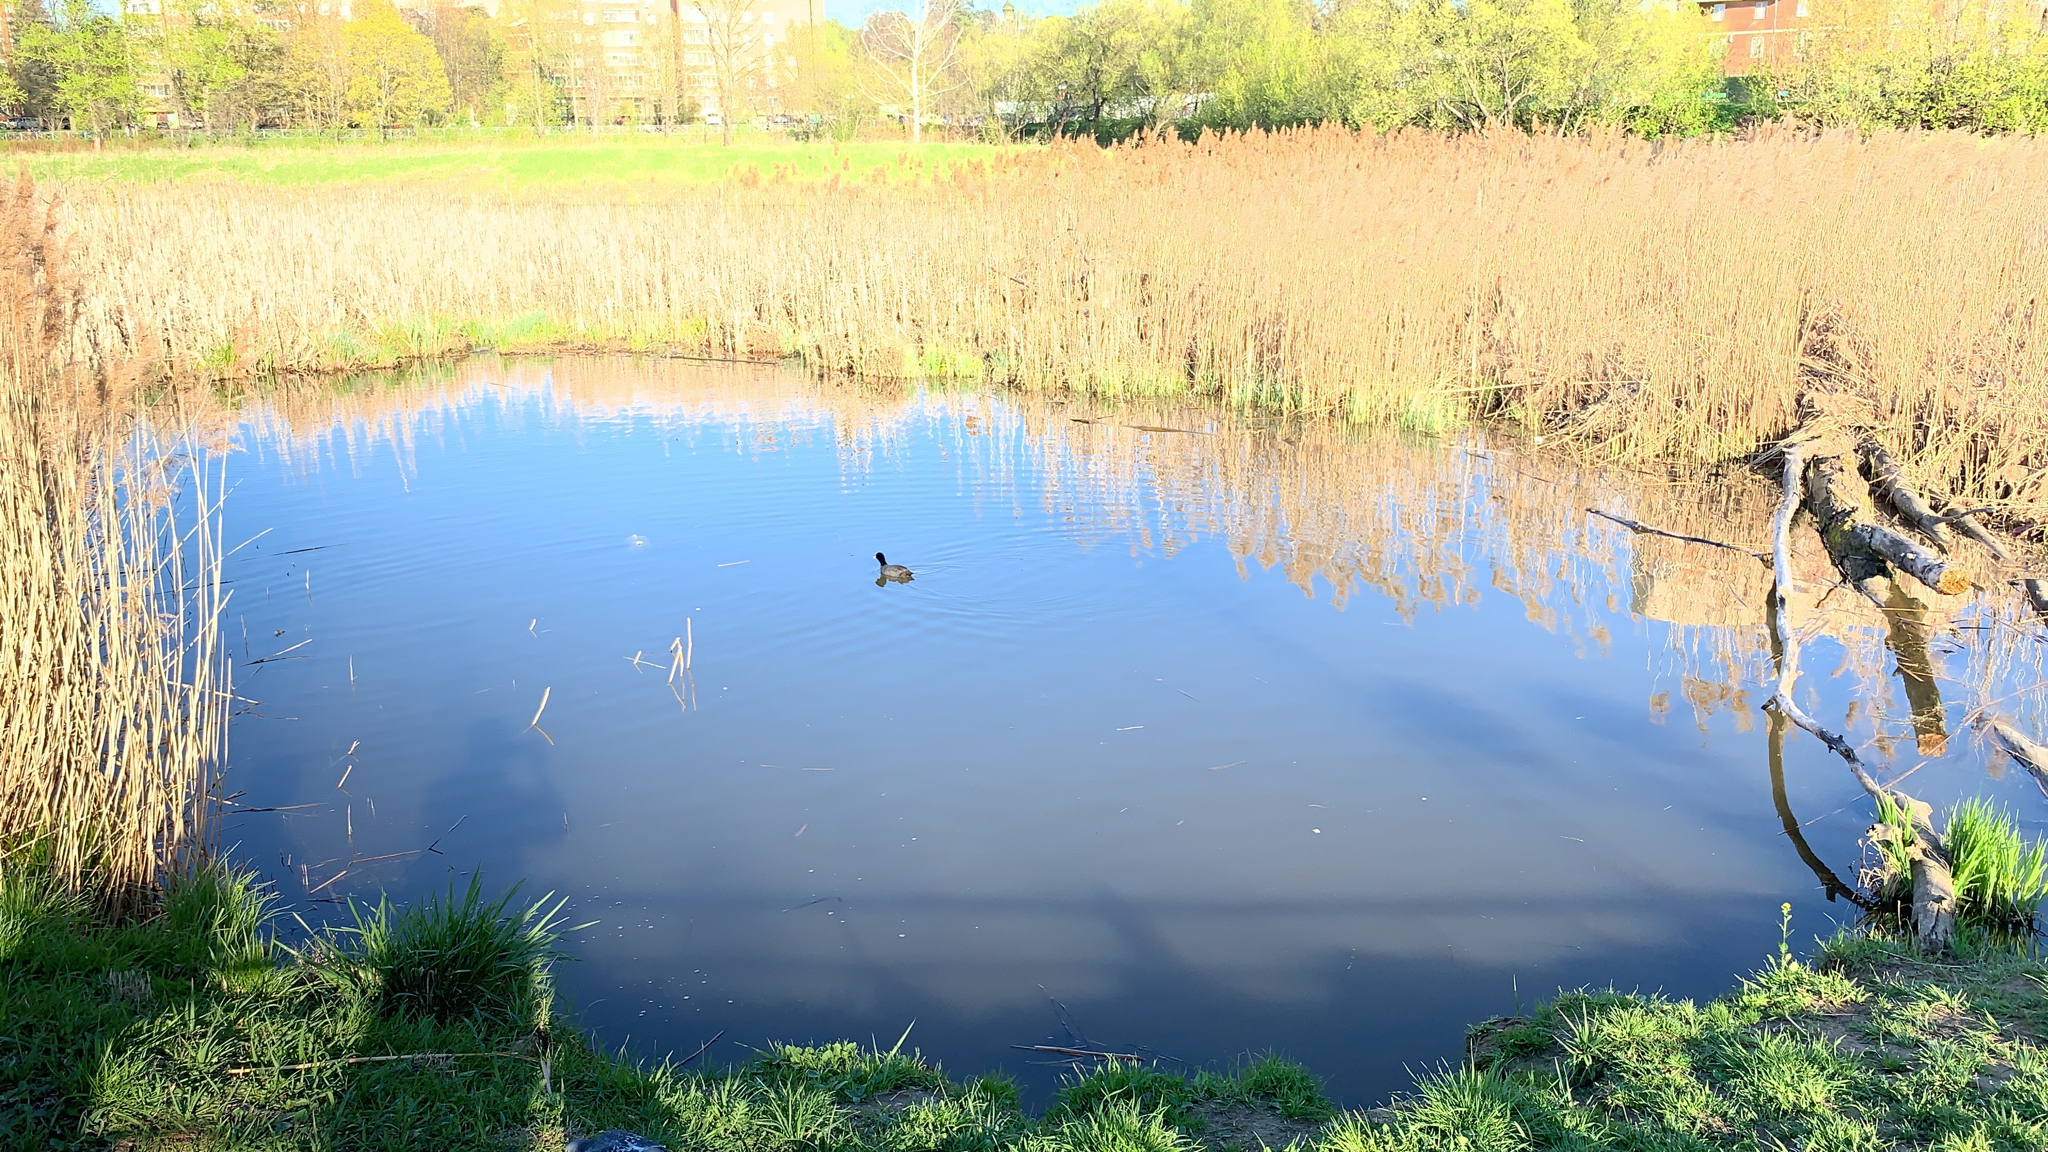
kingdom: Animalia
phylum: Chordata
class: Aves
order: Gruiformes
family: Rallidae
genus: Fulica
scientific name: Fulica atra
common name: Eurasian coot
